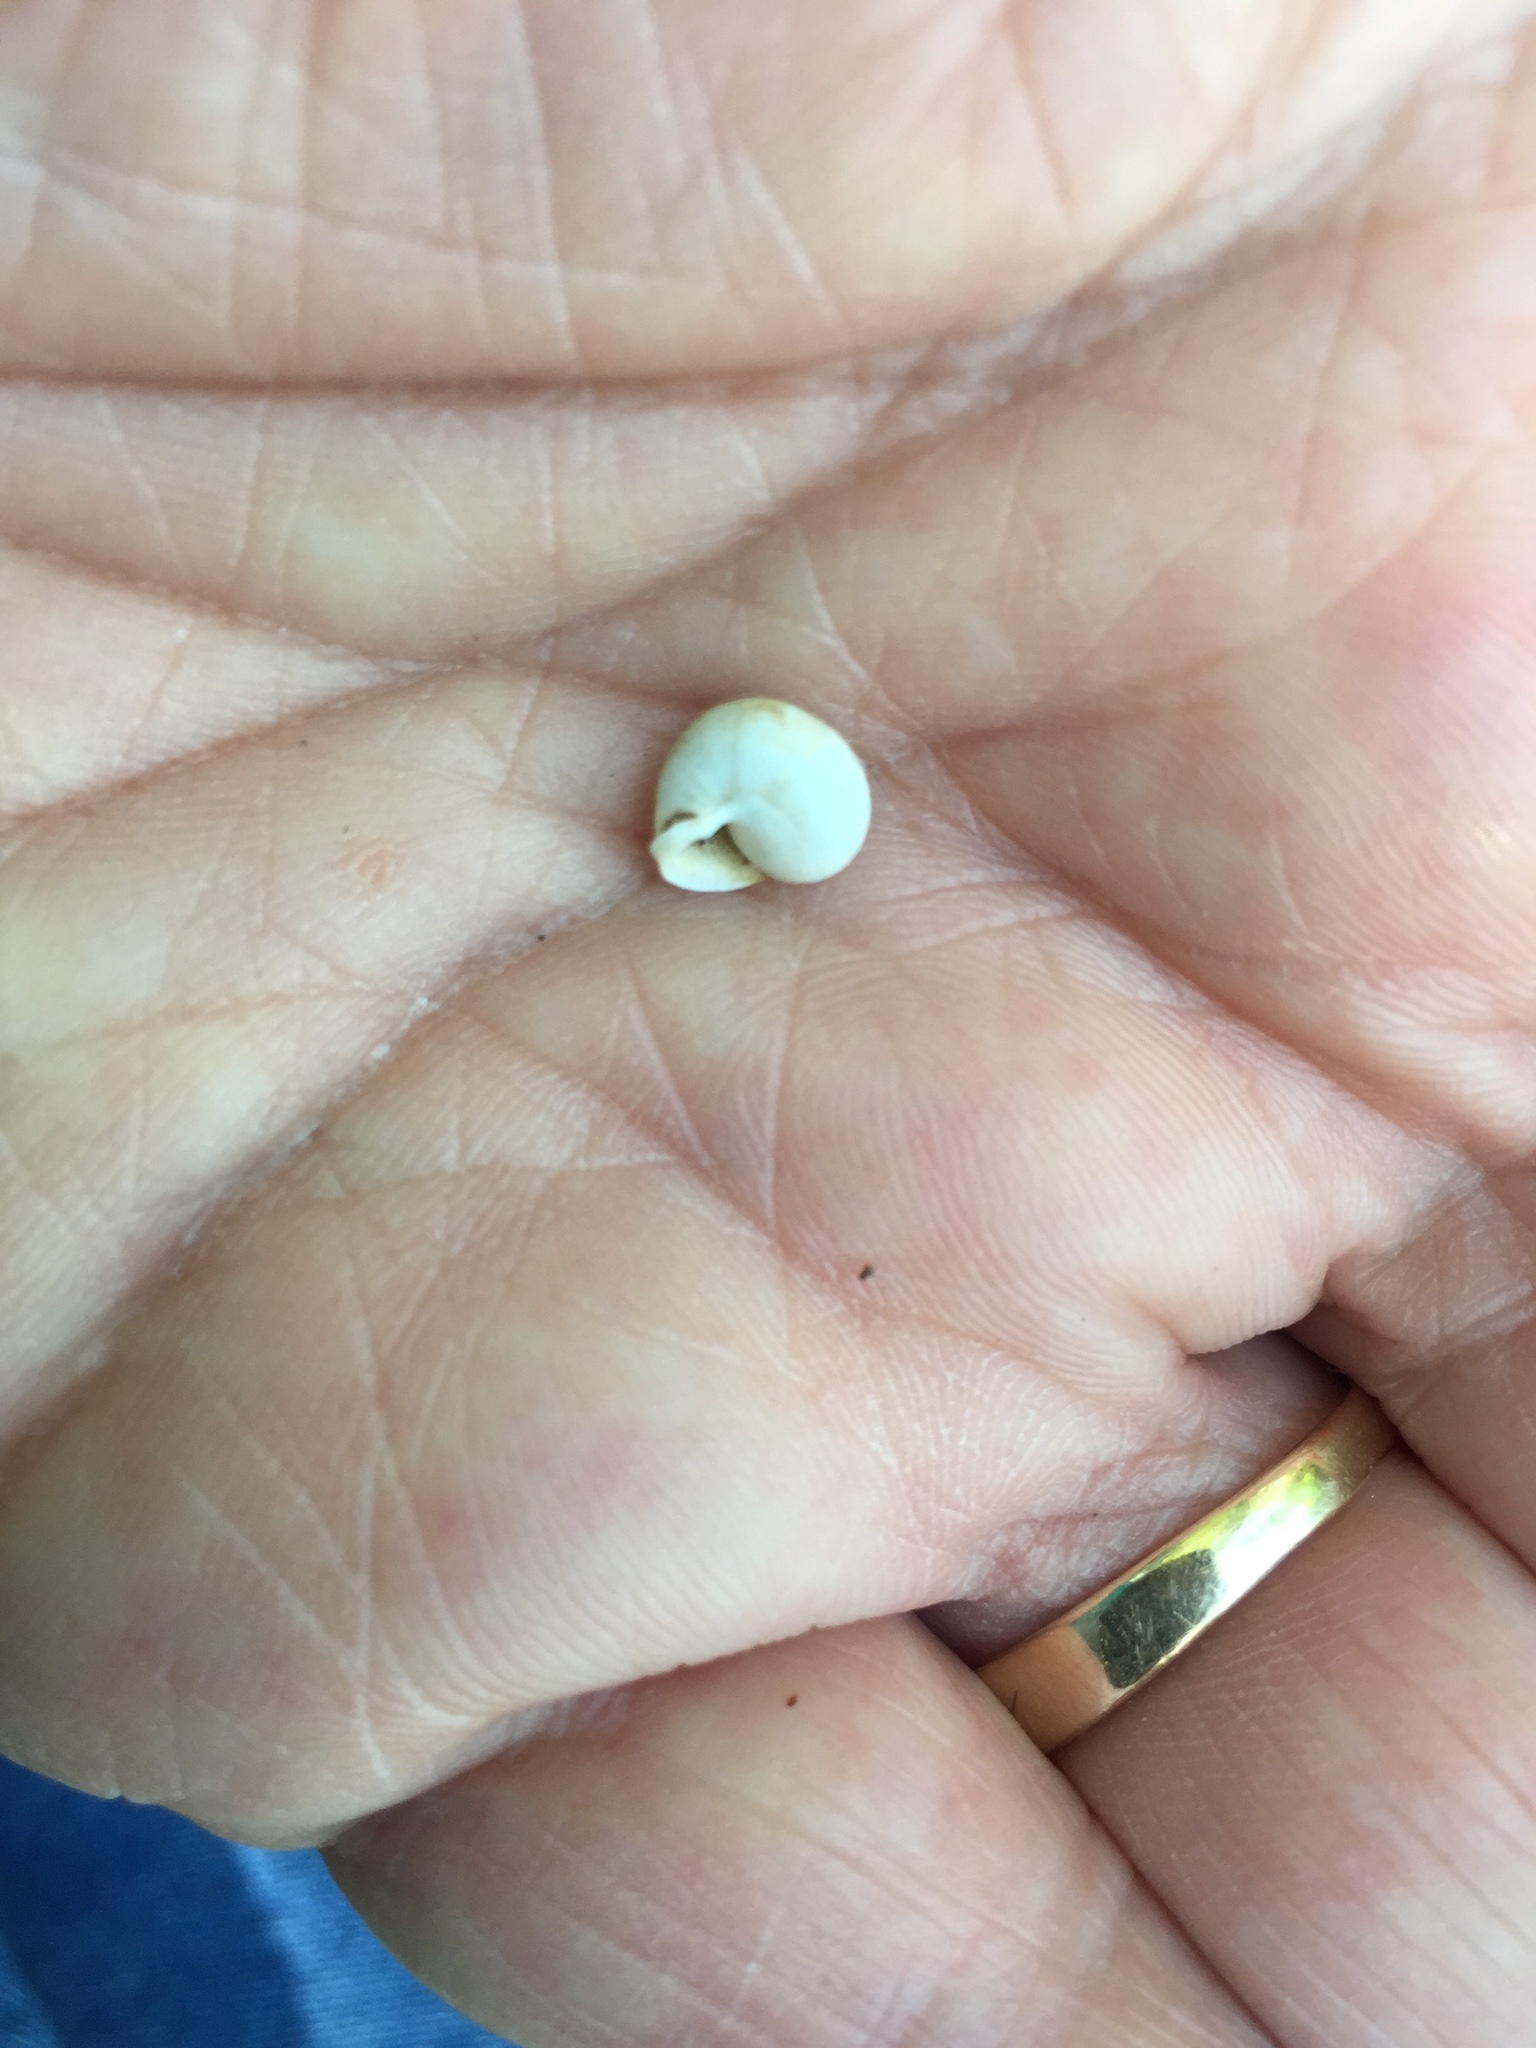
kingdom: Animalia
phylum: Mollusca
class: Gastropoda
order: Cycloneritida
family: Helicinidae
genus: Helicina
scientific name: Helicina orbiculata
